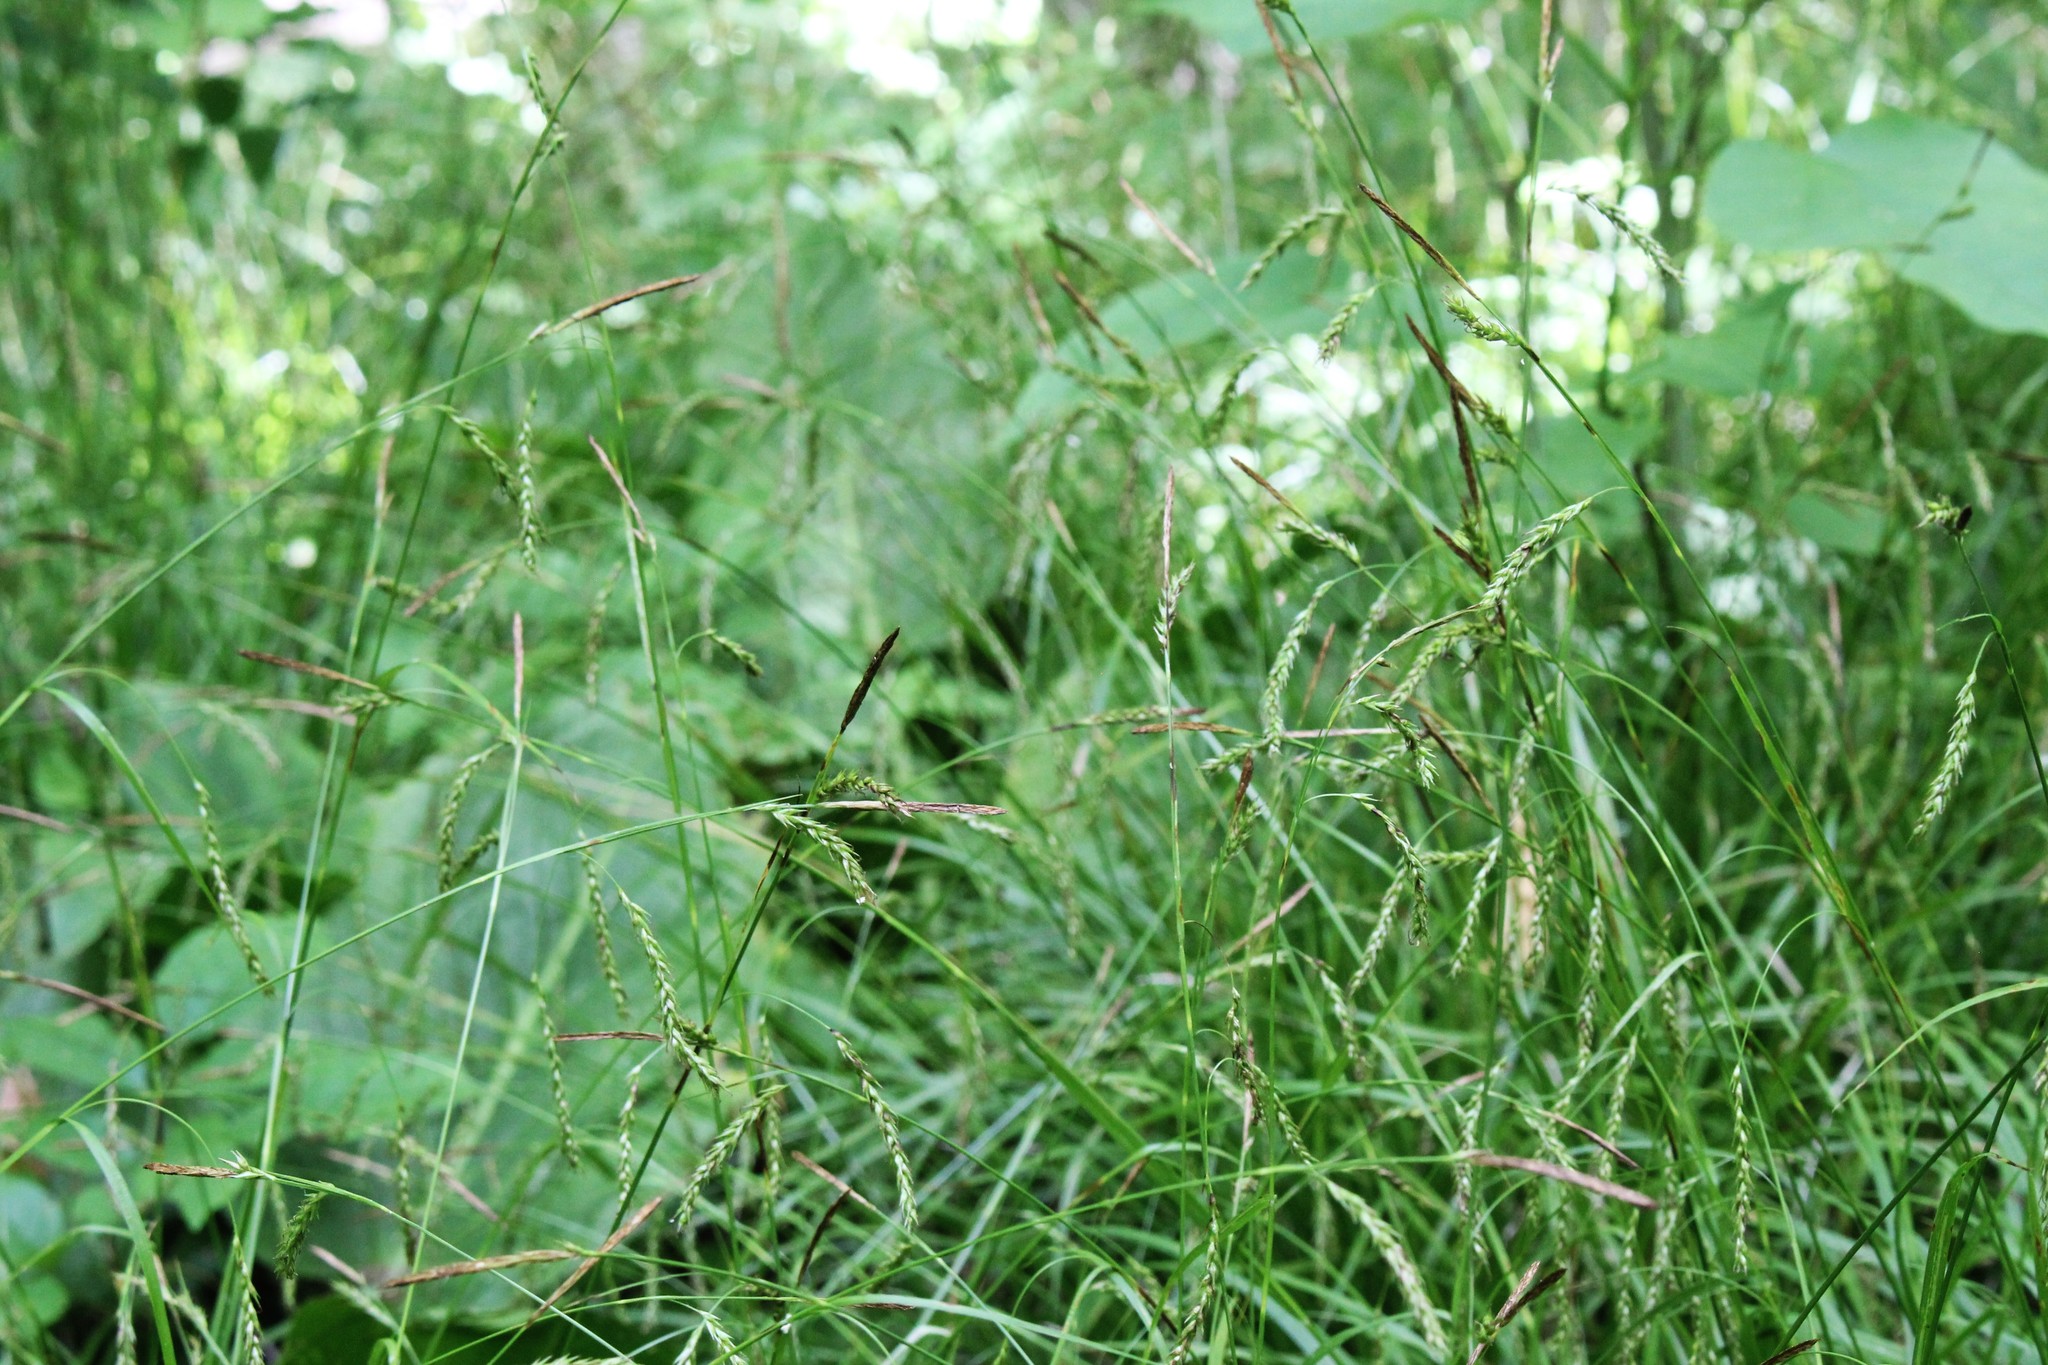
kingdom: Plantae
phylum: Tracheophyta
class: Liliopsida
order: Poales
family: Cyperaceae
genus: Carex
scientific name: Carex sylvatica
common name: Wood-sedge
